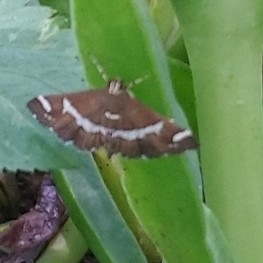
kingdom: Animalia
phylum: Arthropoda
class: Insecta
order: Lepidoptera
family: Crambidae
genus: Spoladea
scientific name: Spoladea recurvalis
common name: Beet webworm moth
